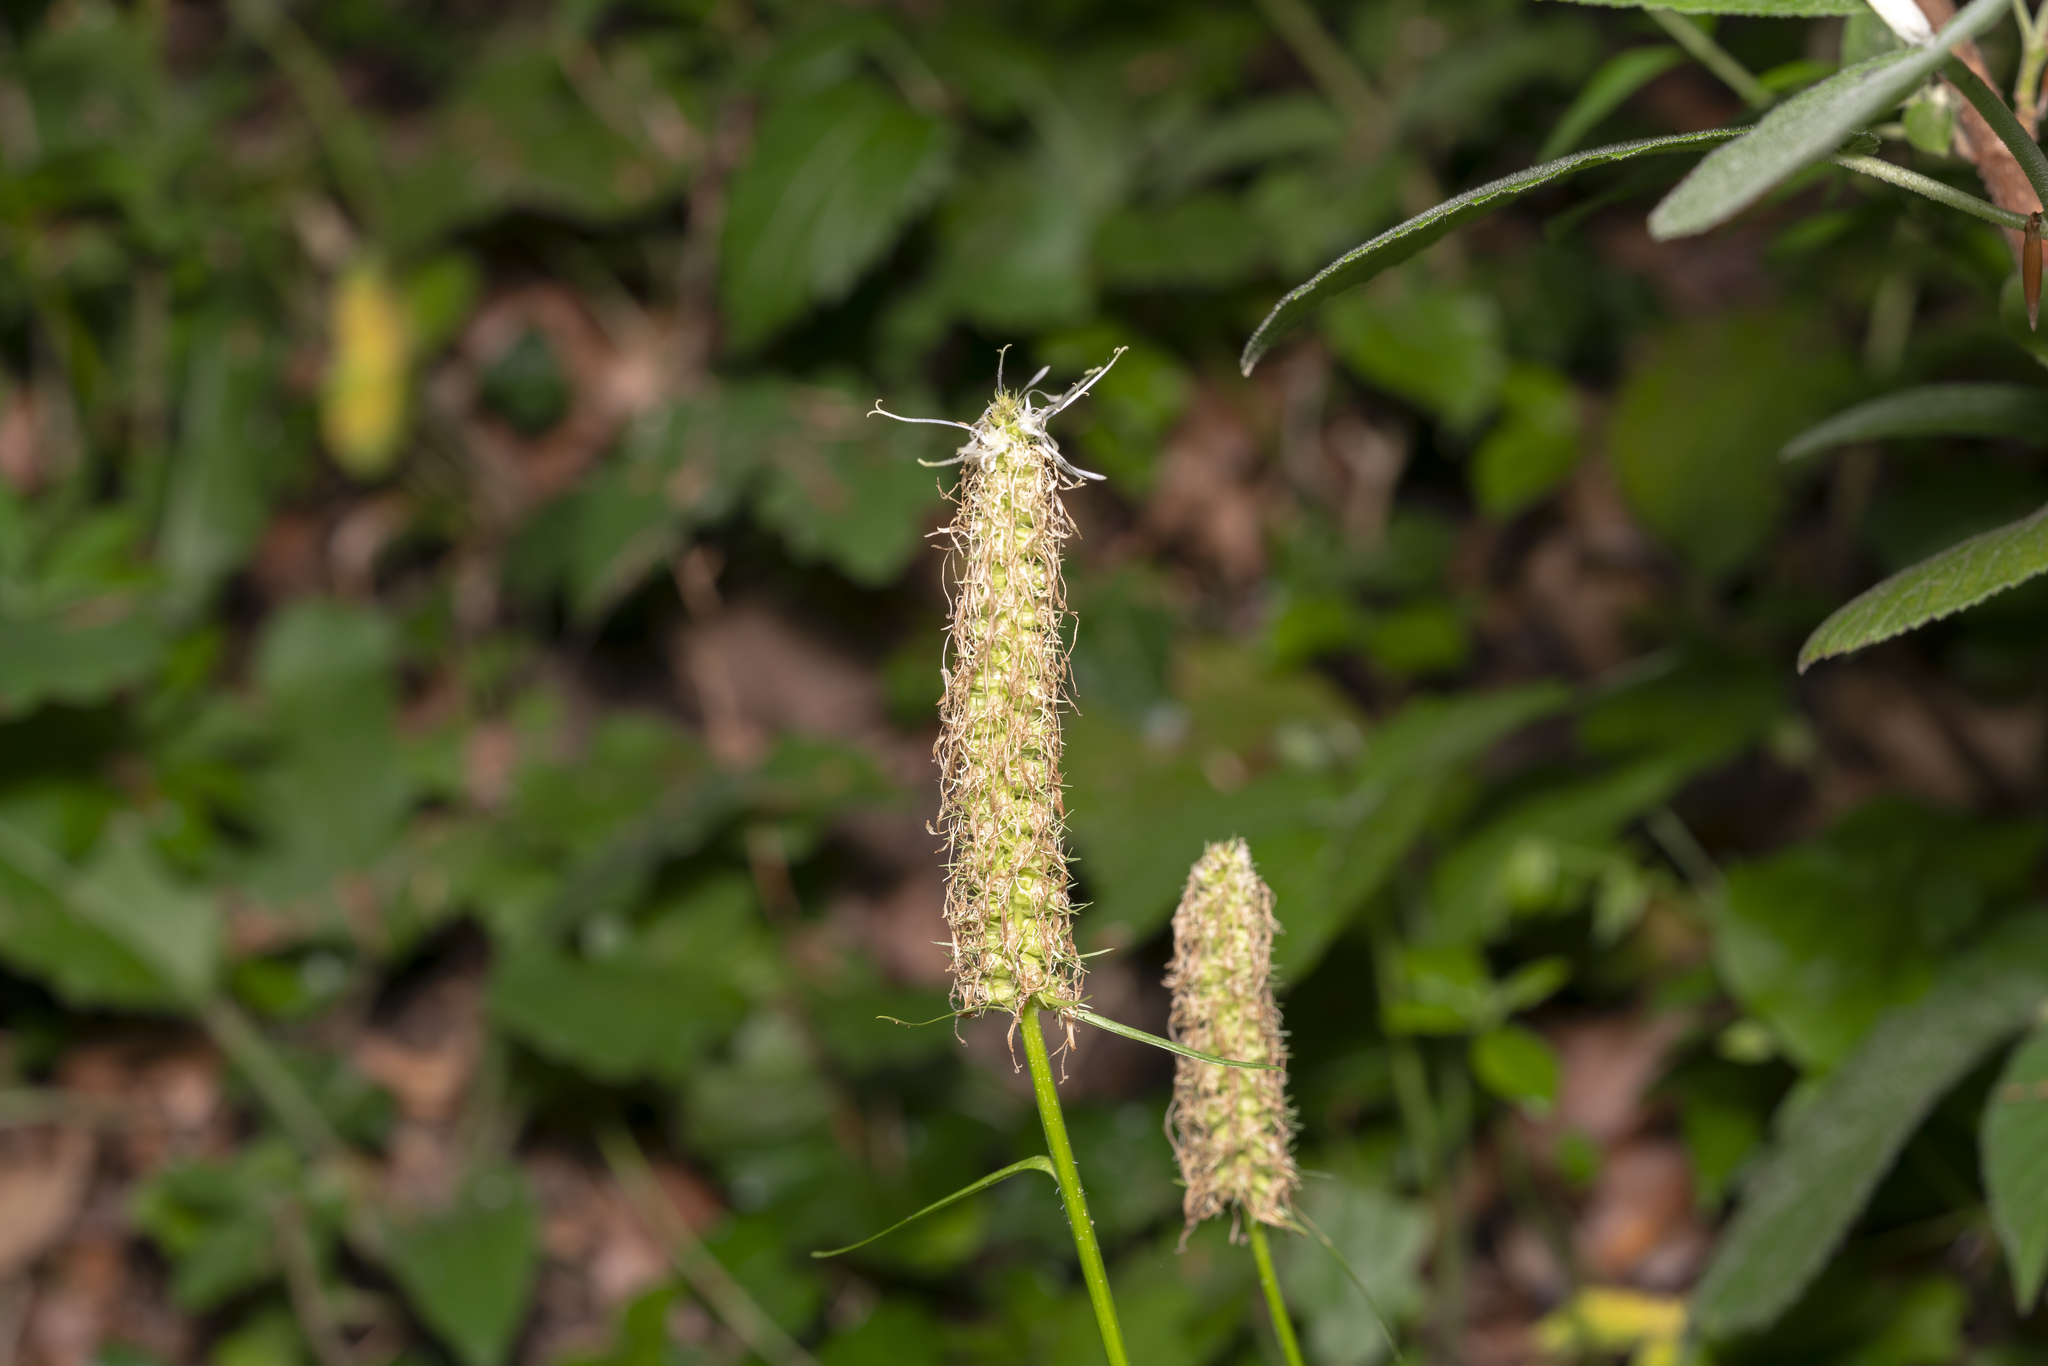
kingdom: Plantae
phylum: Tracheophyta
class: Magnoliopsida
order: Asterales
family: Campanulaceae
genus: Phyteuma
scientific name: Phyteuma spicatum
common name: Spiked rampion
